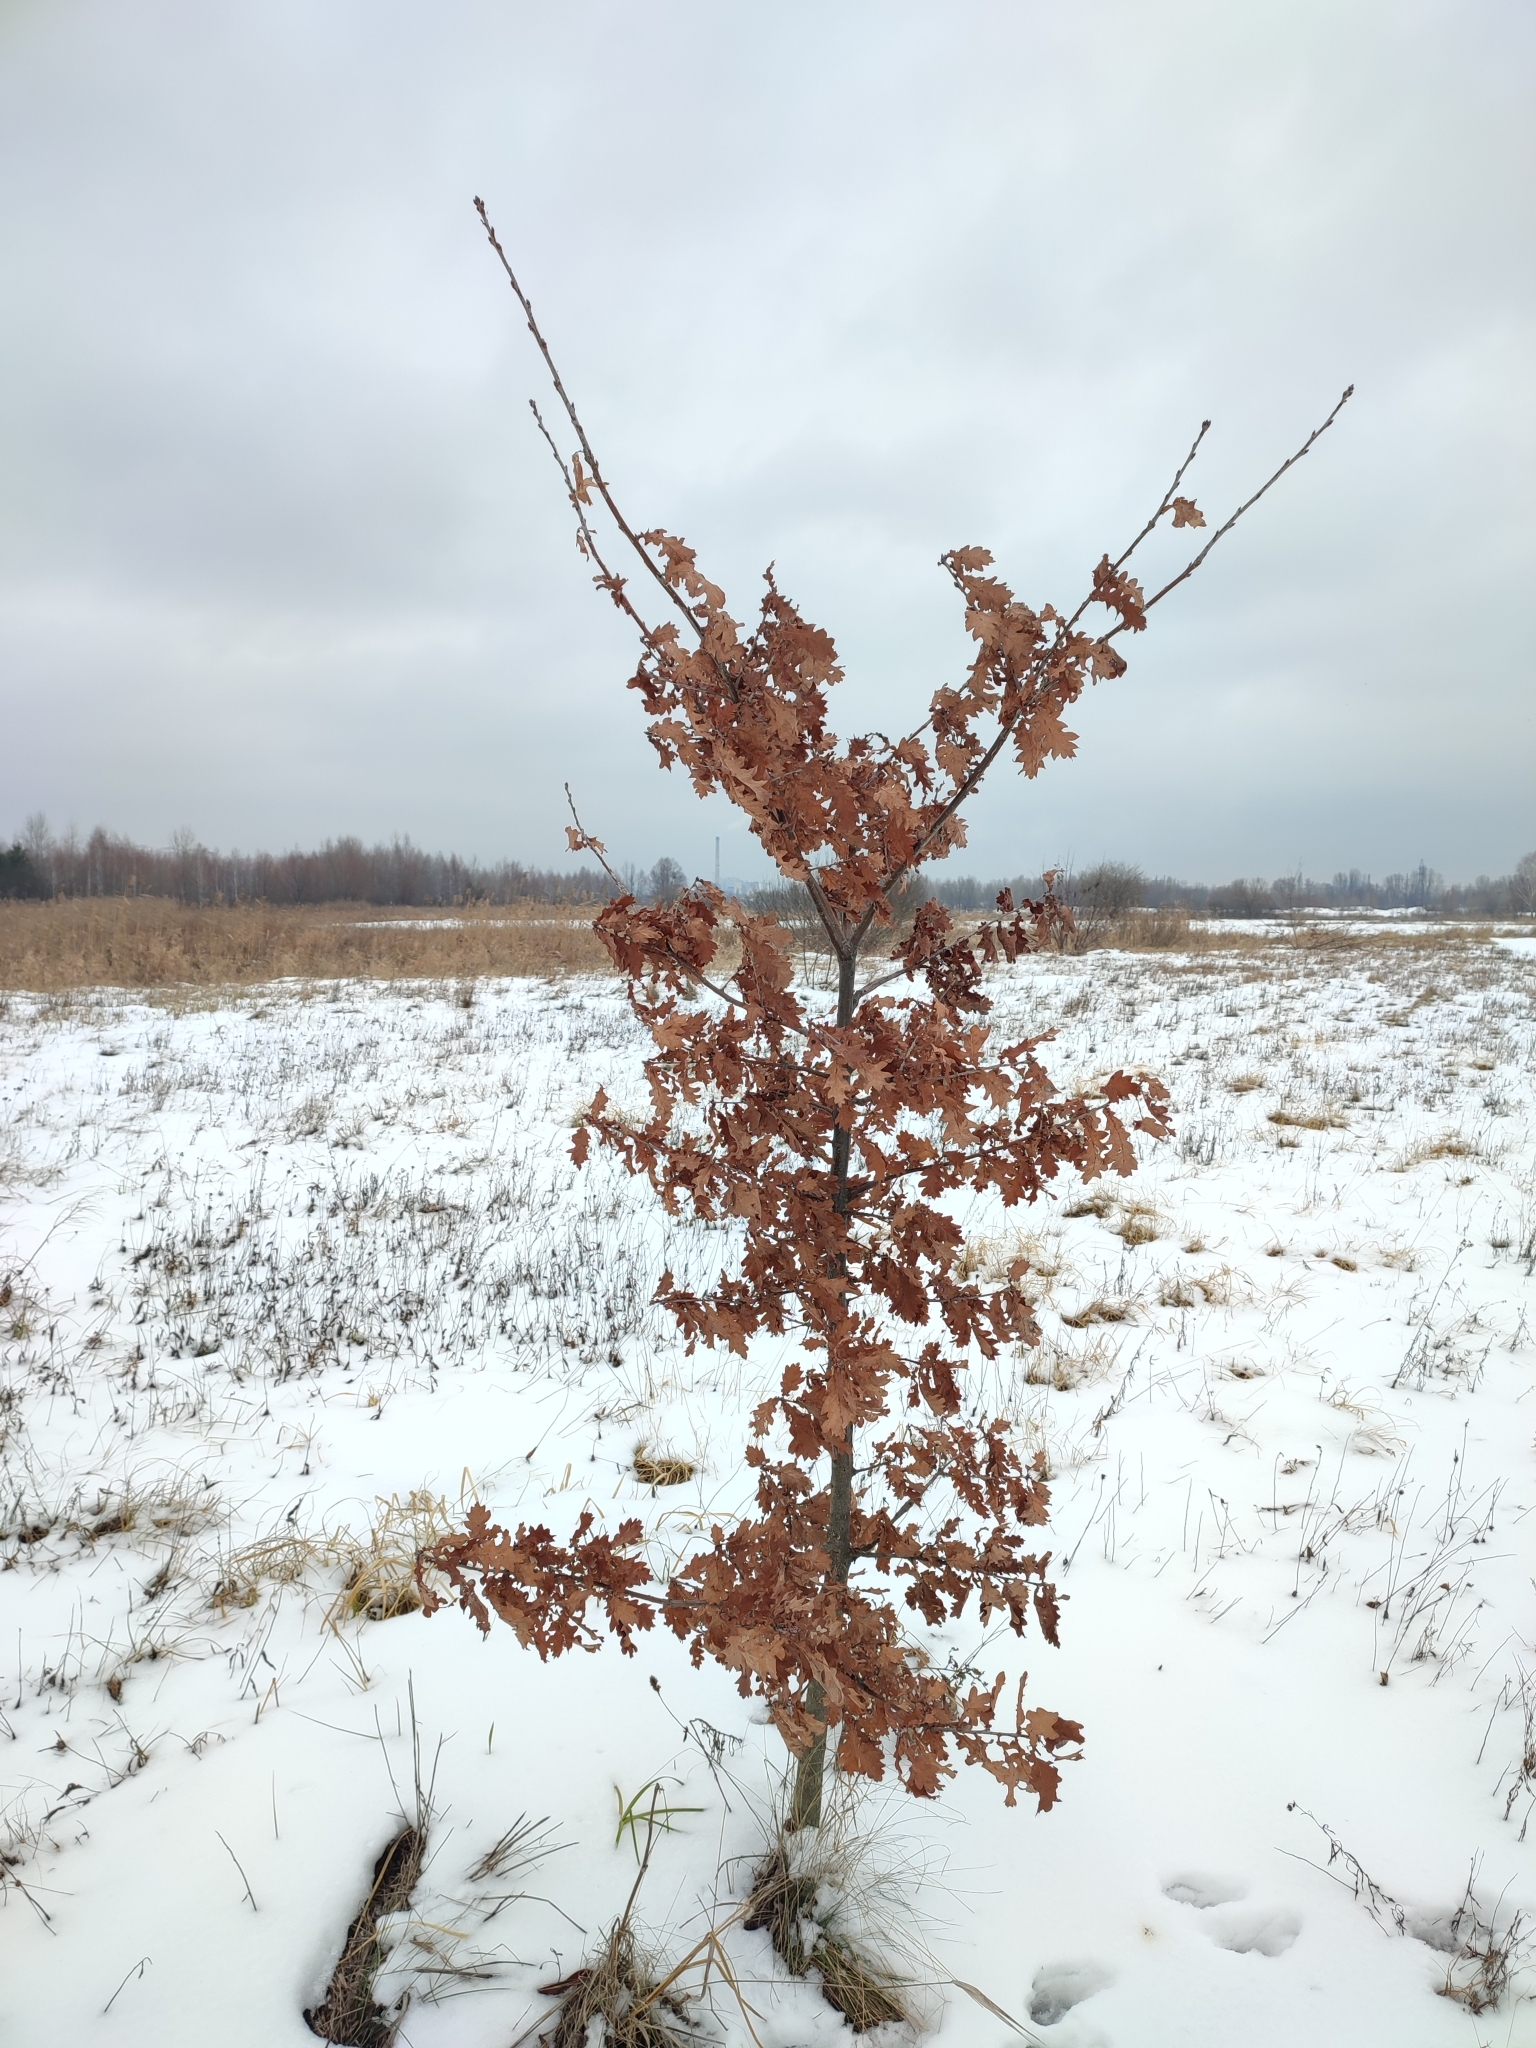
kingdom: Plantae
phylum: Tracheophyta
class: Magnoliopsida
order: Fagales
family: Fagaceae
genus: Quercus
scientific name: Quercus robur
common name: Pedunculate oak
